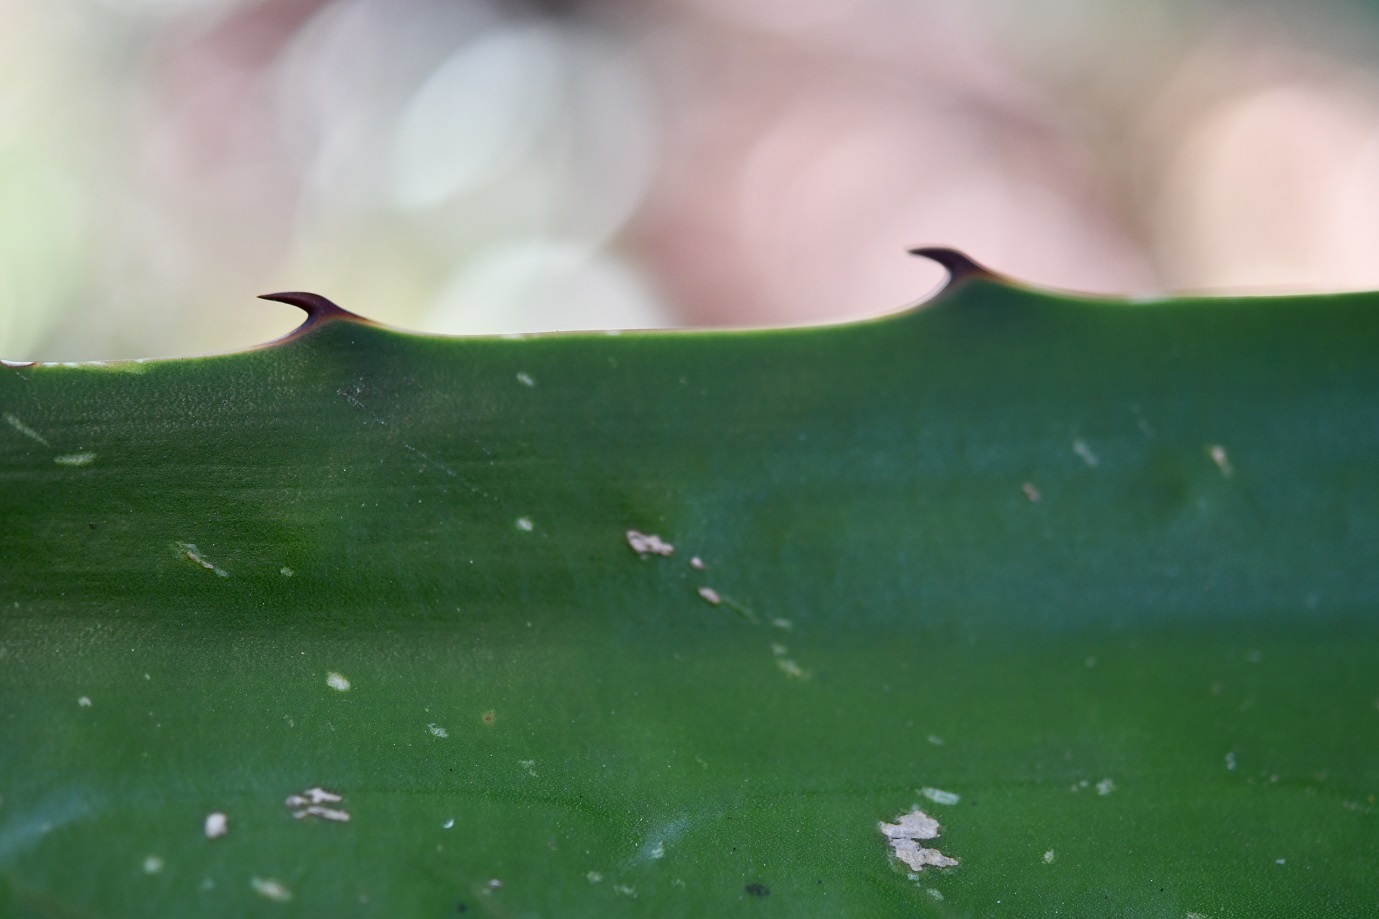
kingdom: Plantae
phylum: Tracheophyta
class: Liliopsida
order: Asparagales
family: Asparagaceae
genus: Furcraea
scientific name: Furcraea guatemalensis
